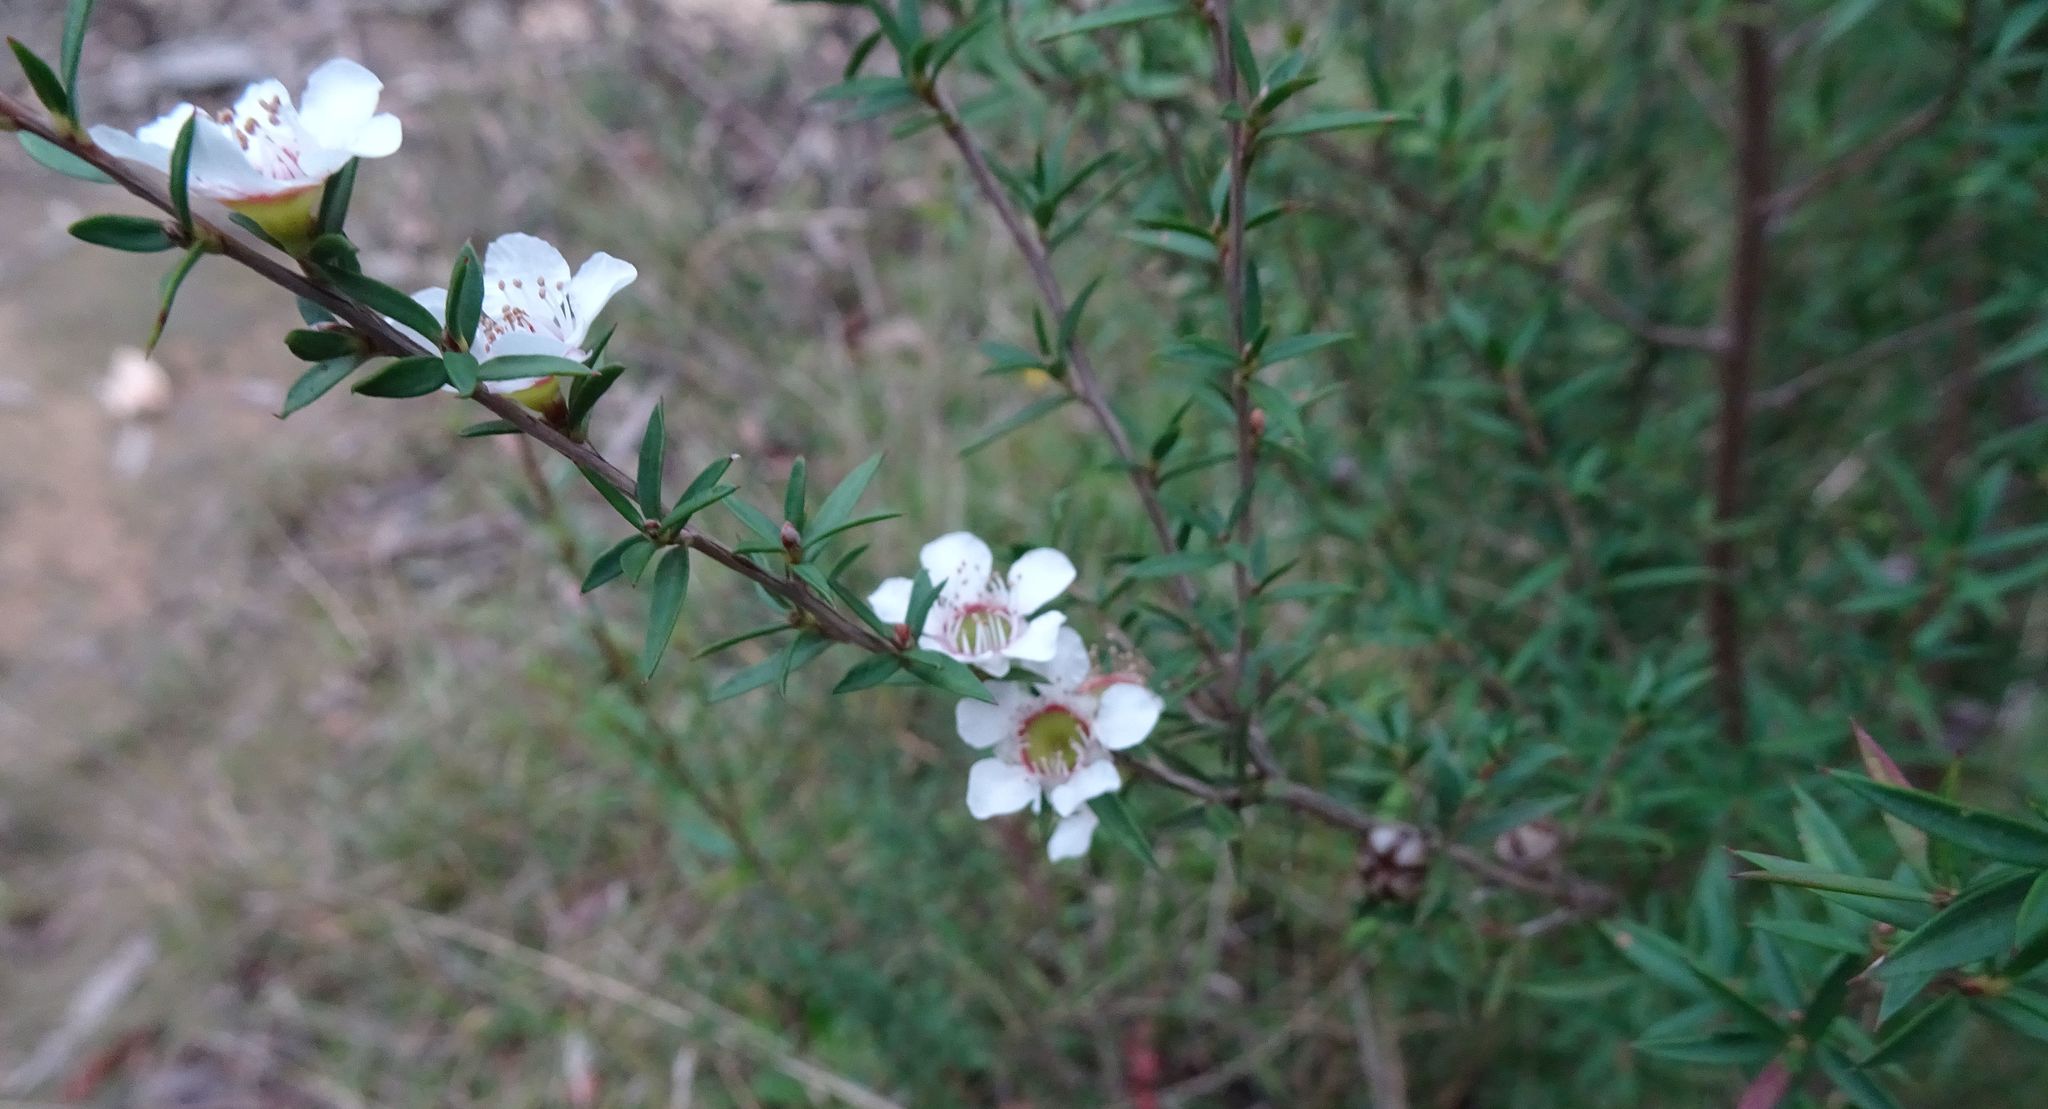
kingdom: Plantae
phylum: Tracheophyta
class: Magnoliopsida
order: Myrtales
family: Myrtaceae
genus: Leptospermum
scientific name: Leptospermum continentale
